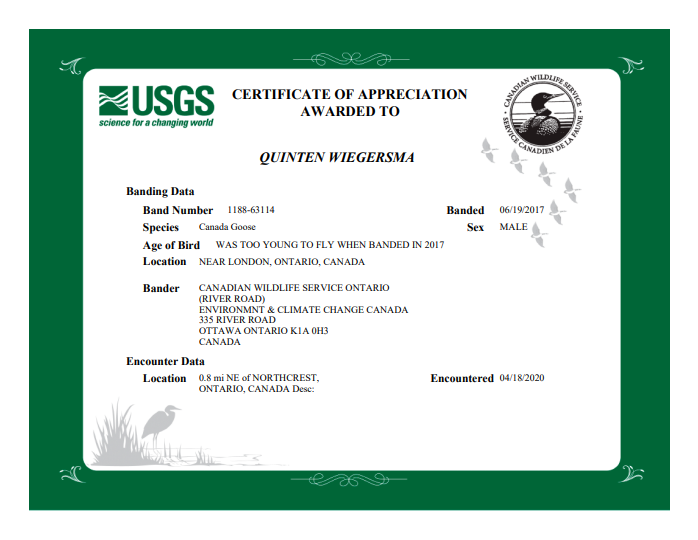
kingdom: Animalia
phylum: Chordata
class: Aves
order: Anseriformes
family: Anatidae
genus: Branta
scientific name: Branta canadensis
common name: Canada goose
